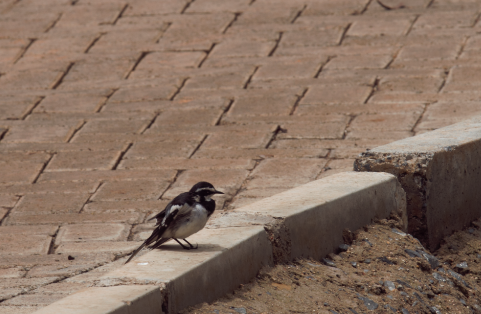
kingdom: Animalia
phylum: Chordata
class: Aves
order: Passeriformes
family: Motacillidae
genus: Motacilla
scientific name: Motacilla aguimp
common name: African pied wagtail
